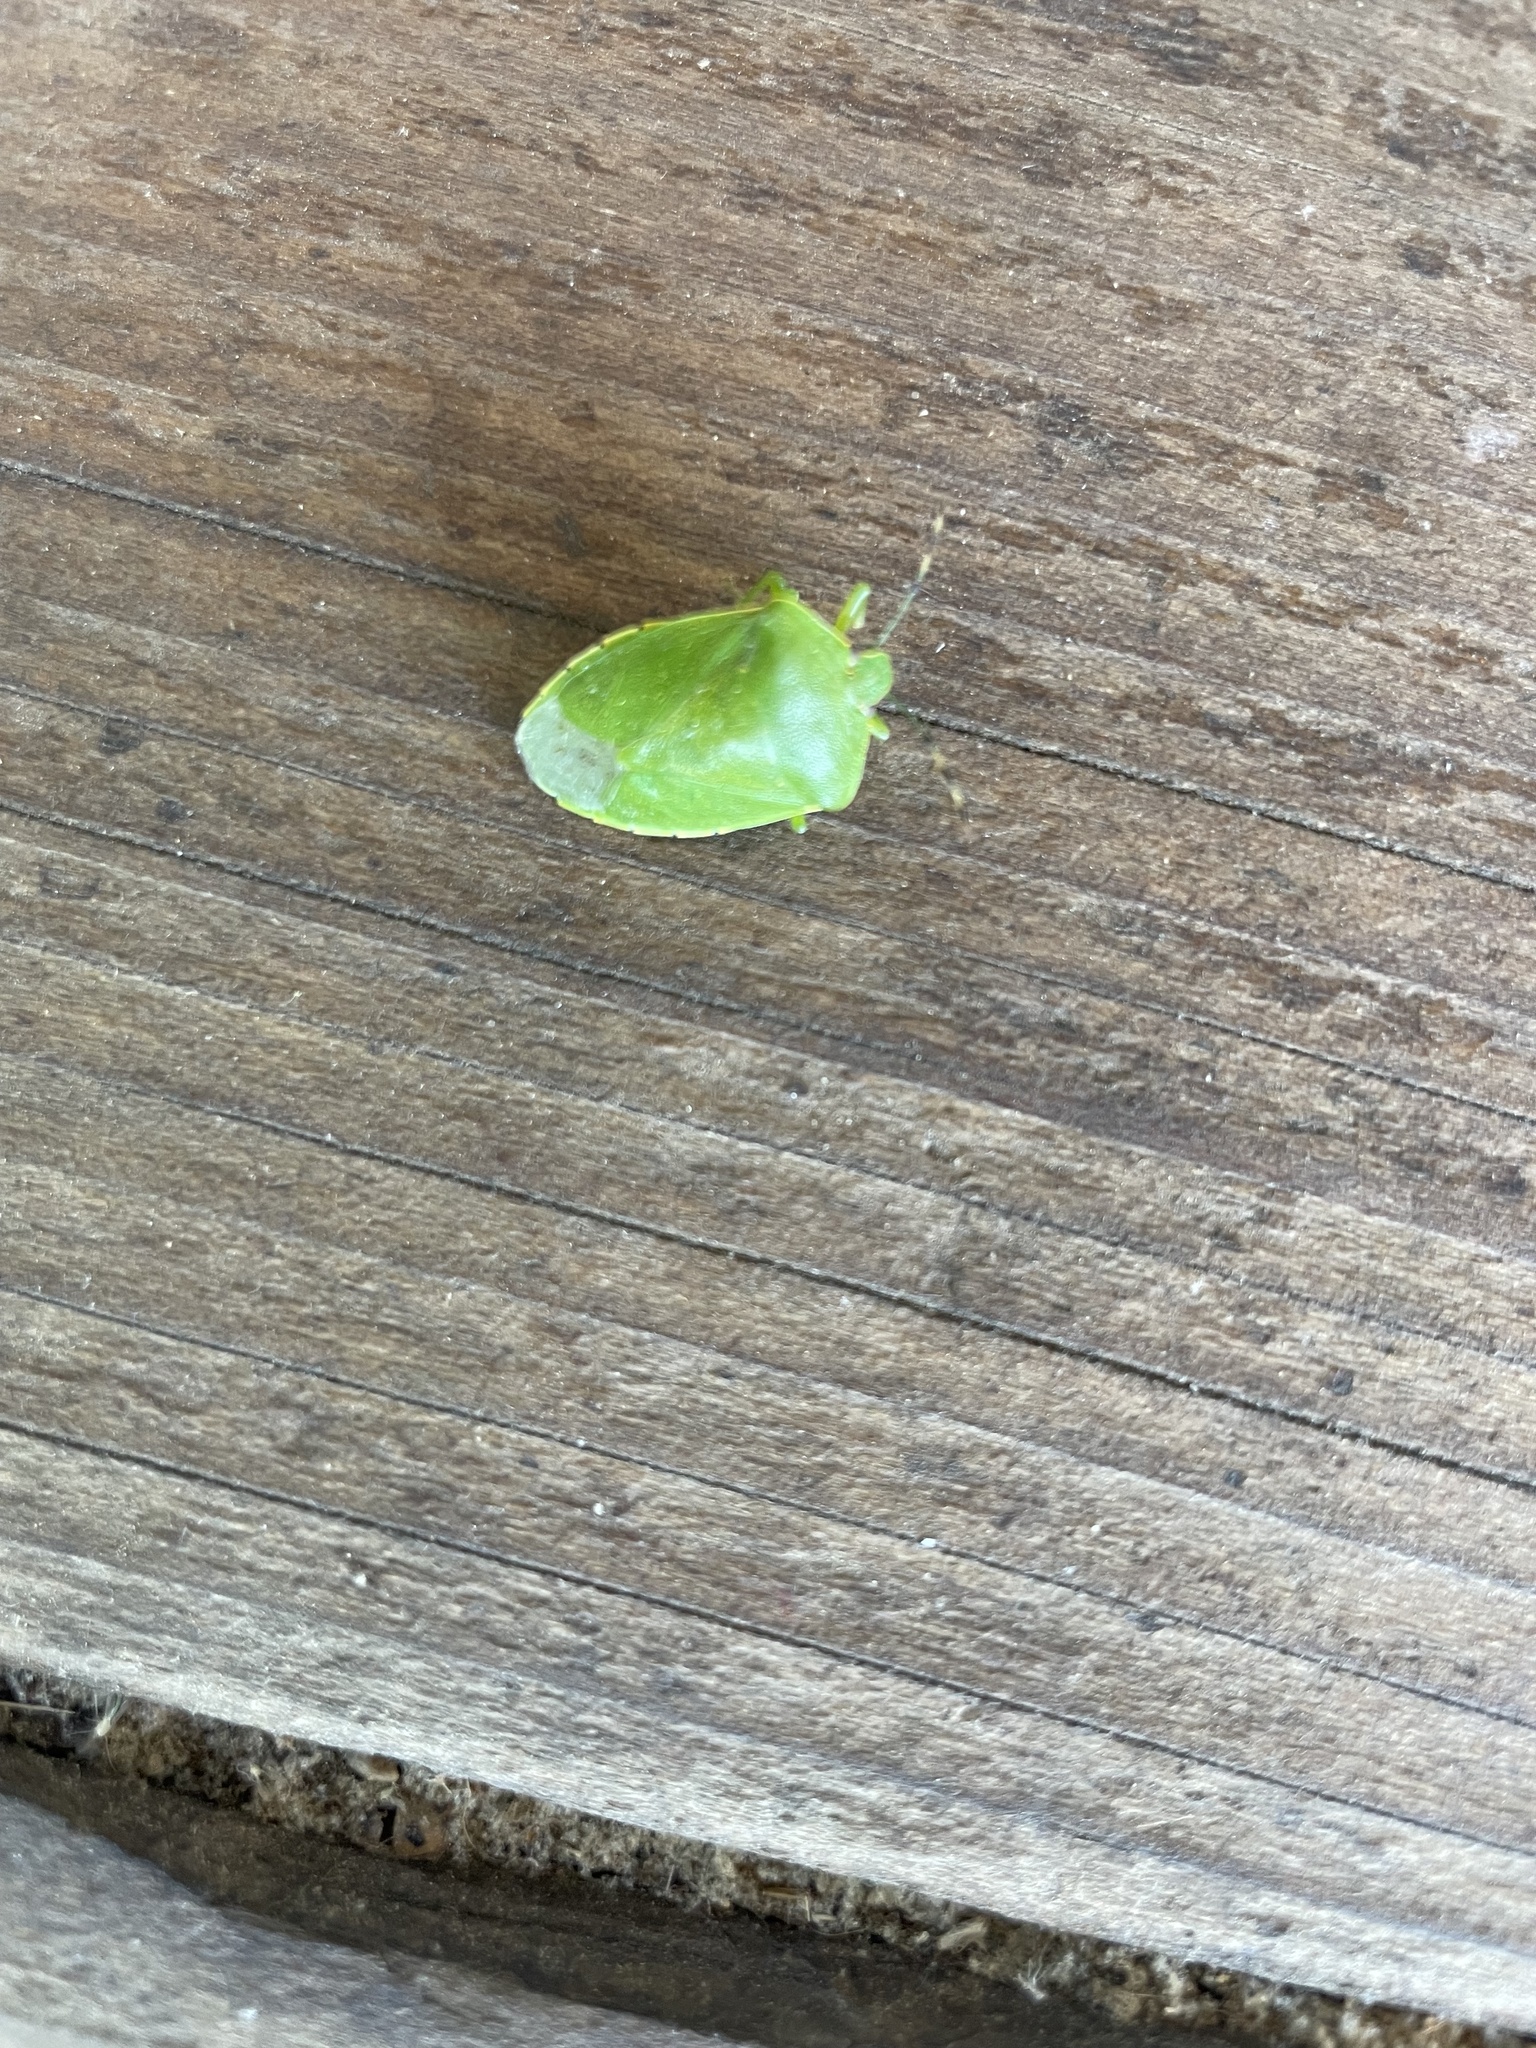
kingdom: Animalia
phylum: Arthropoda
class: Insecta
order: Hemiptera
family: Pentatomidae
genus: Chinavia
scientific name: Chinavia hilaris
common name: Green stink bug
